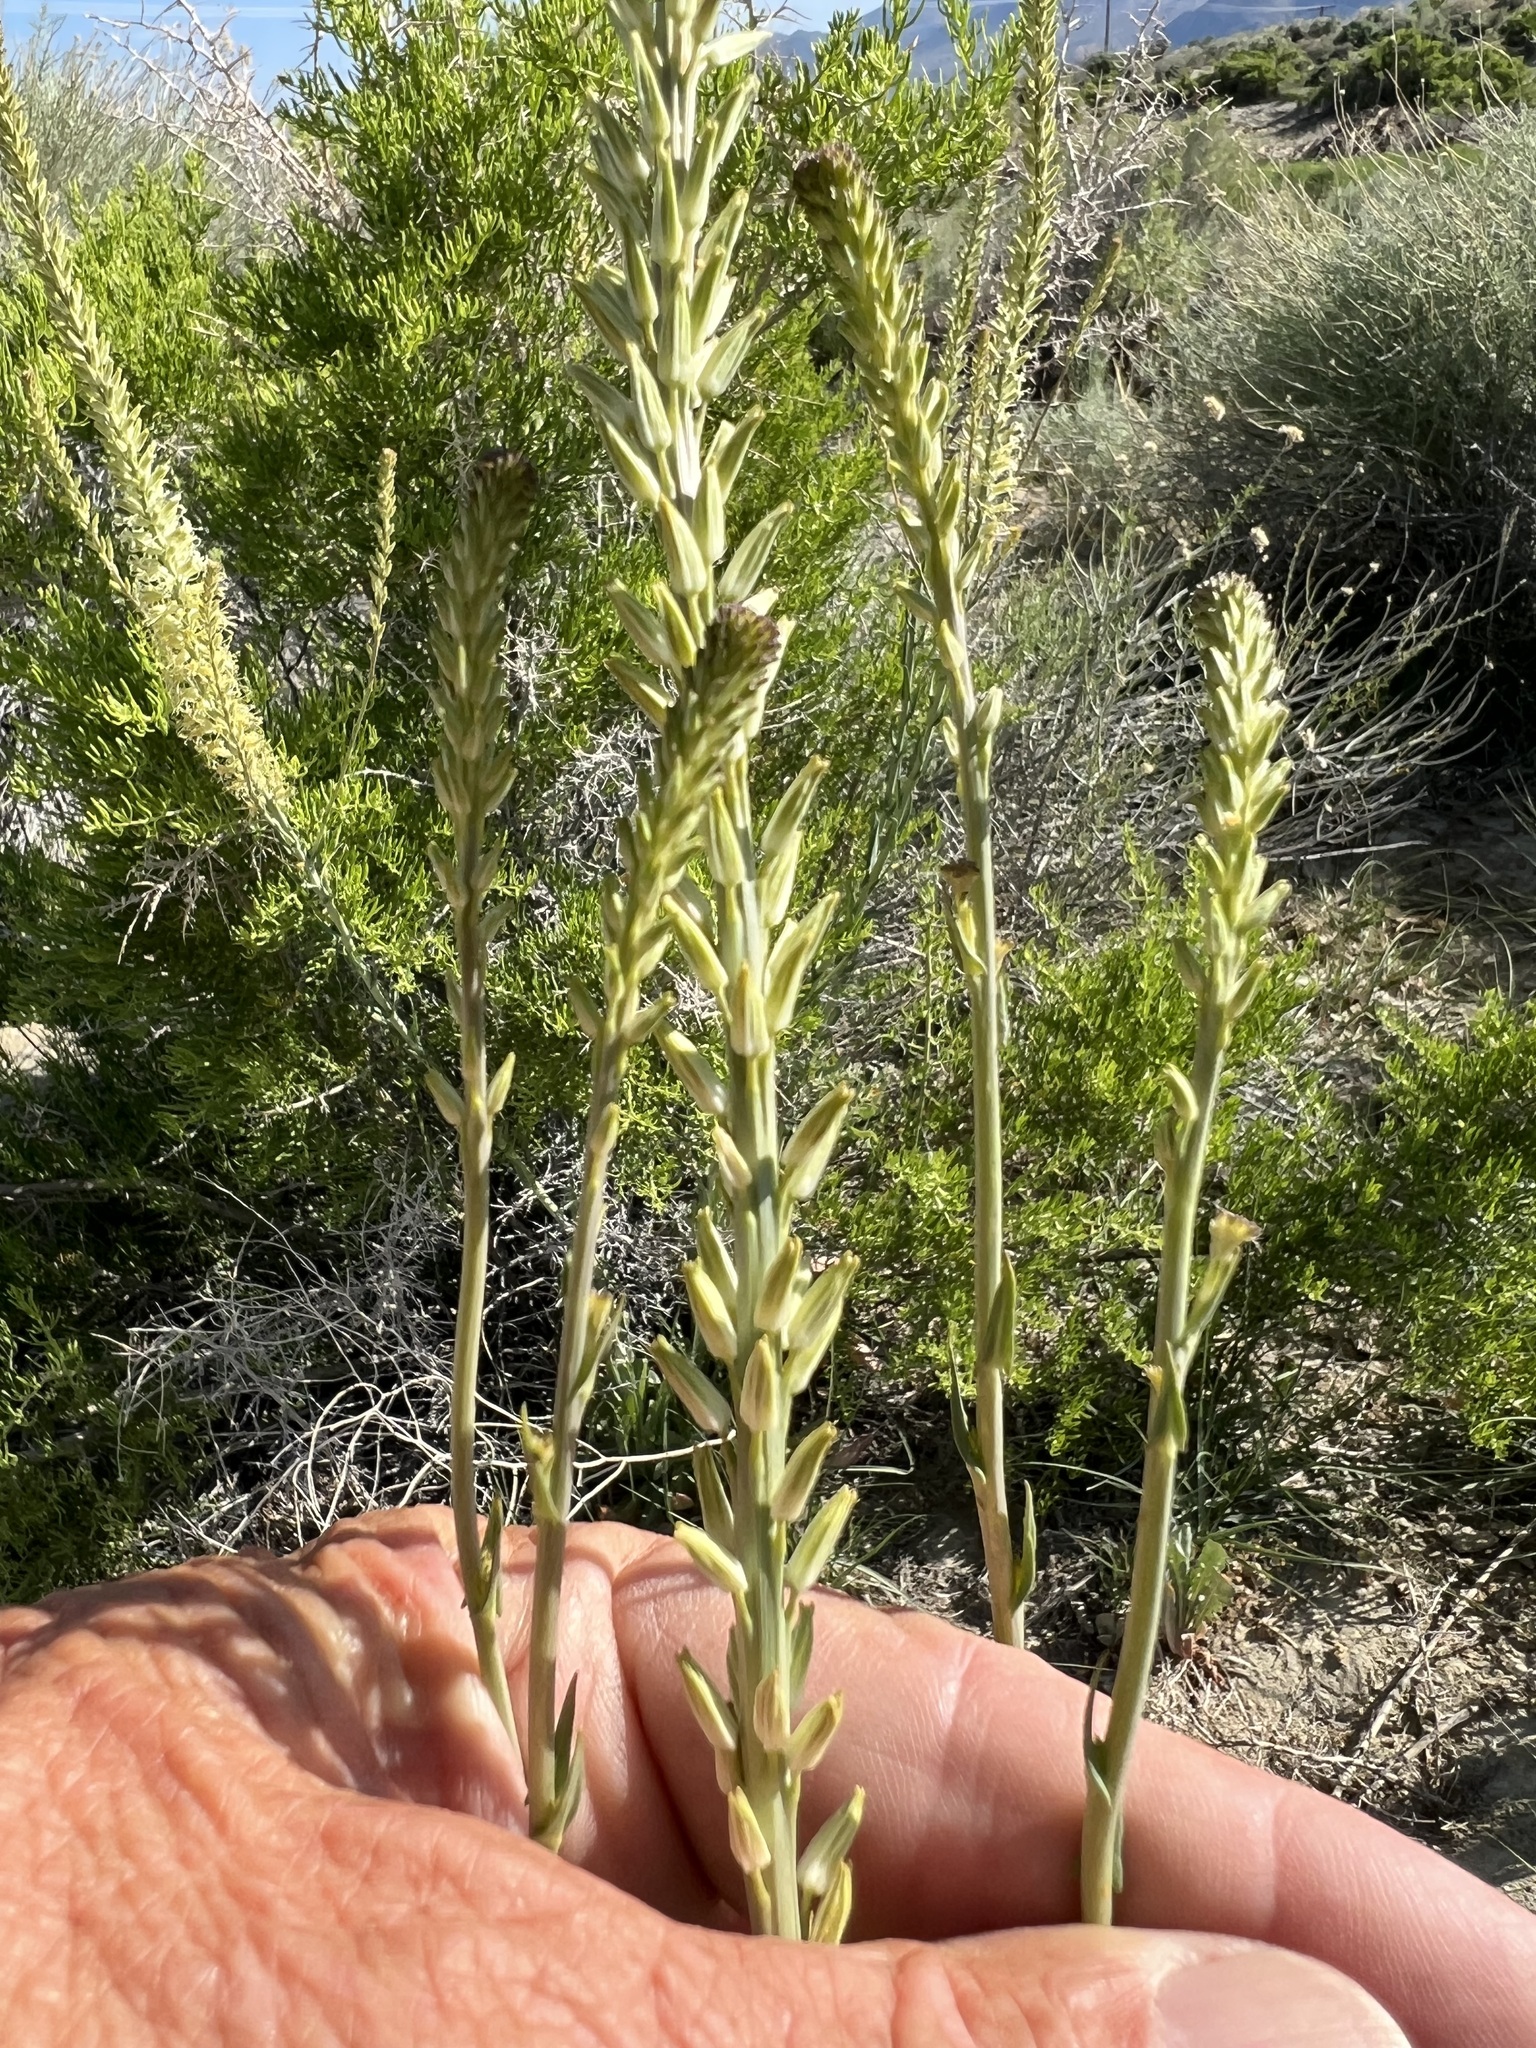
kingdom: Plantae
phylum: Tracheophyta
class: Magnoliopsida
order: Brassicales
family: Brassicaceae
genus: Thelypodium
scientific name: Thelypodium crispum
